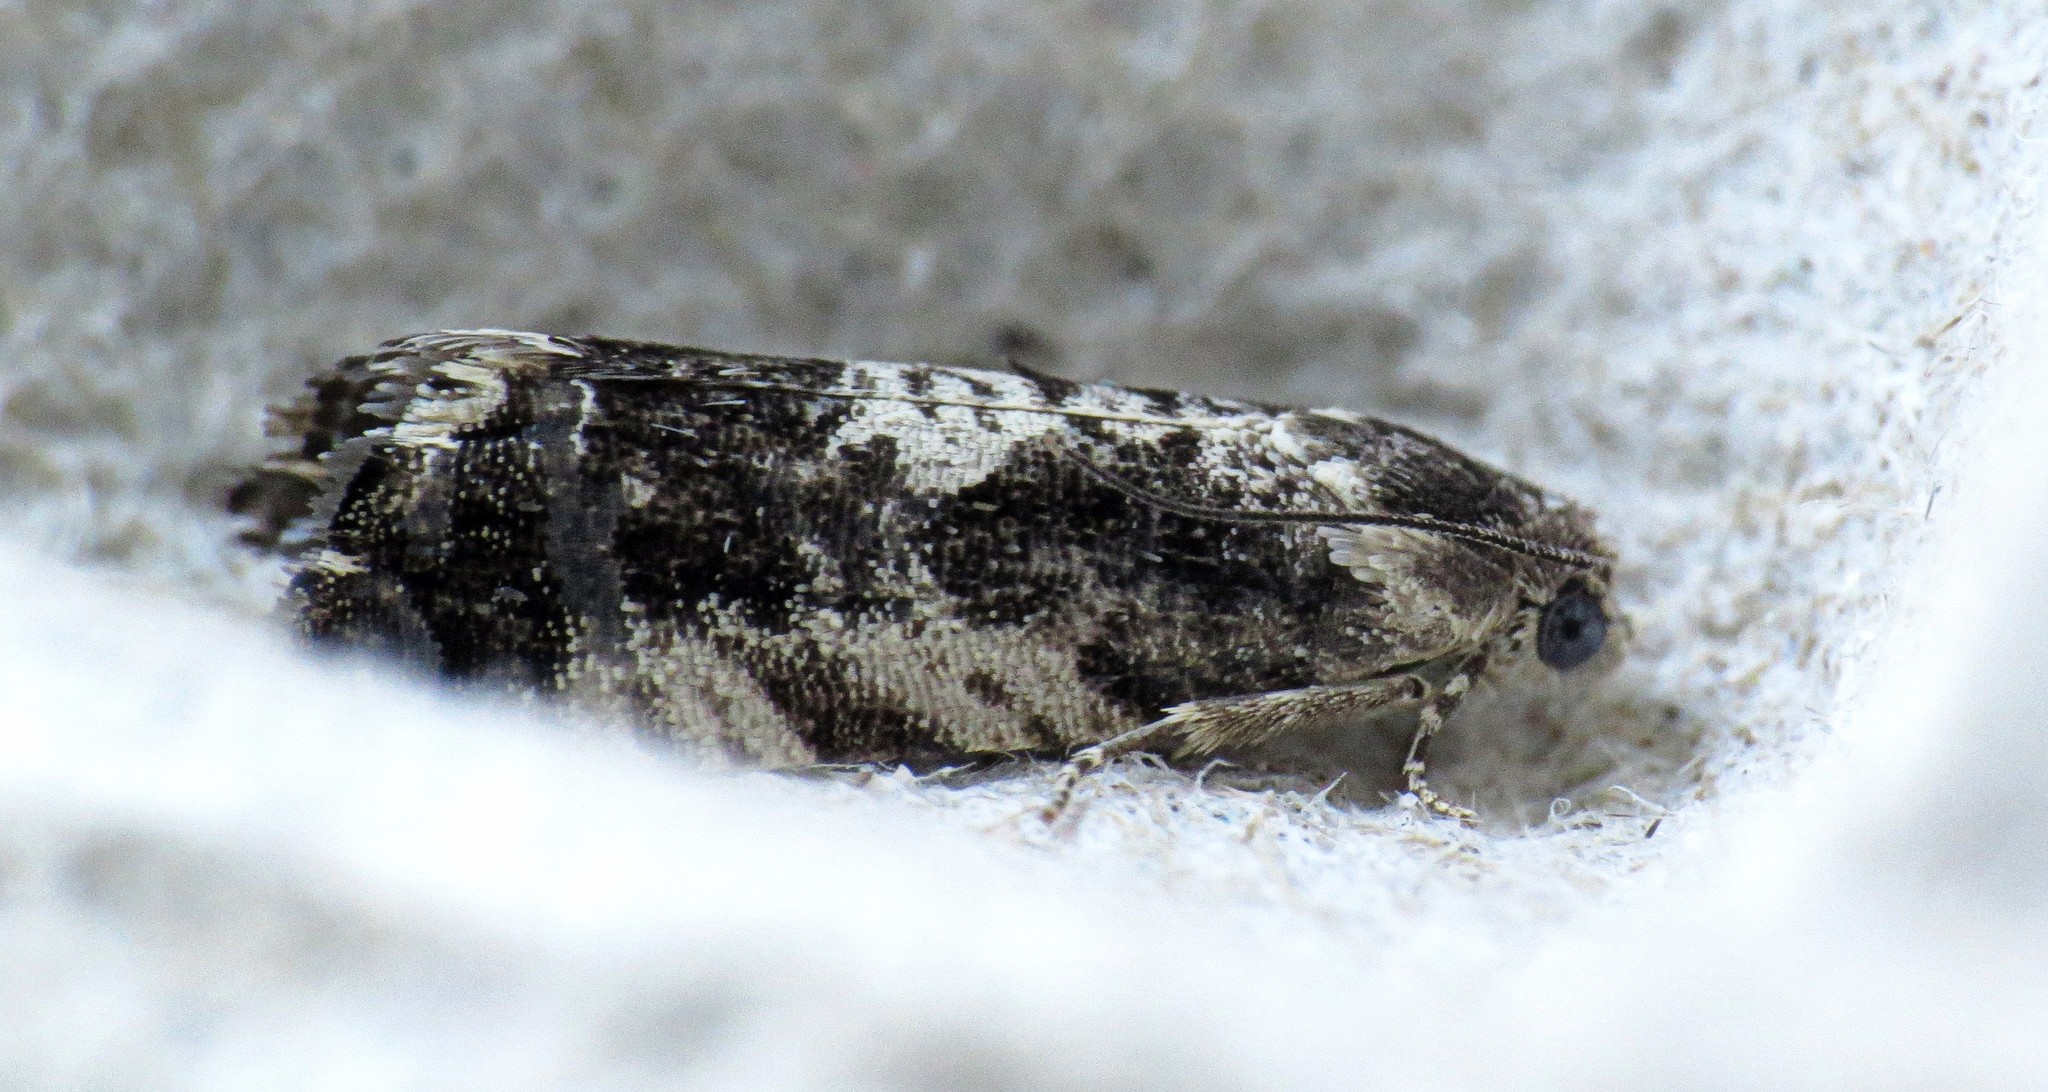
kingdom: Animalia
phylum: Arthropoda
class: Insecta
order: Lepidoptera
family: Tortricidae
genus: Cydia
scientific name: Cydia populana
